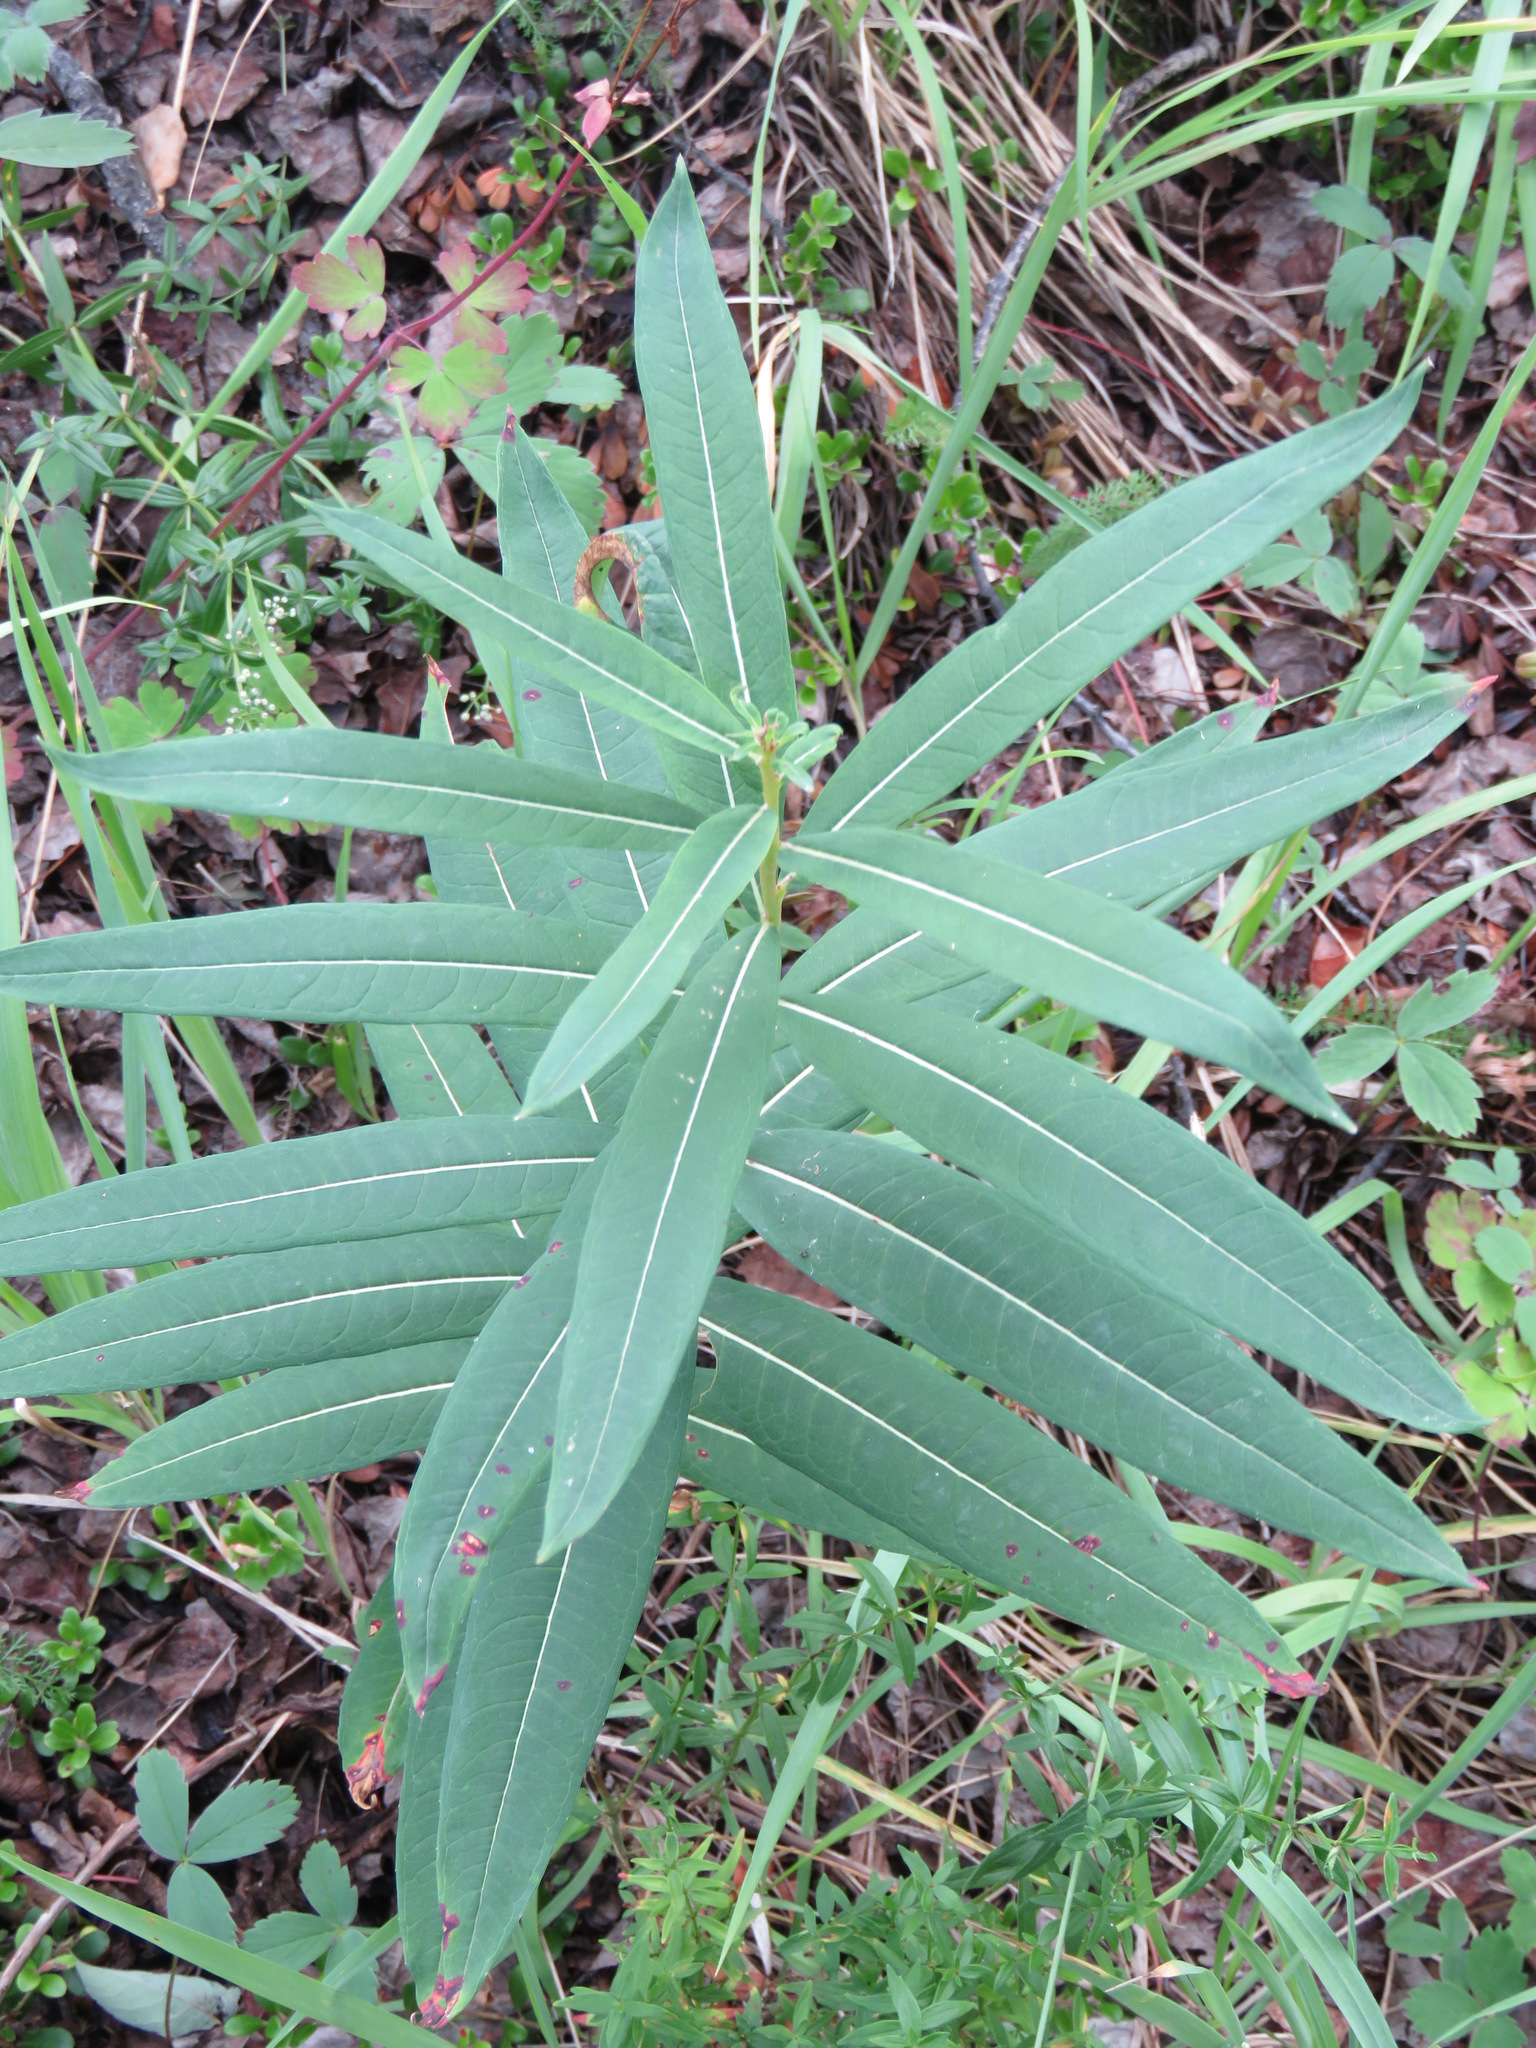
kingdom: Plantae
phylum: Tracheophyta
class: Magnoliopsida
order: Myrtales
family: Onagraceae
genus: Chamaenerion
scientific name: Chamaenerion angustifolium
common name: Fireweed
